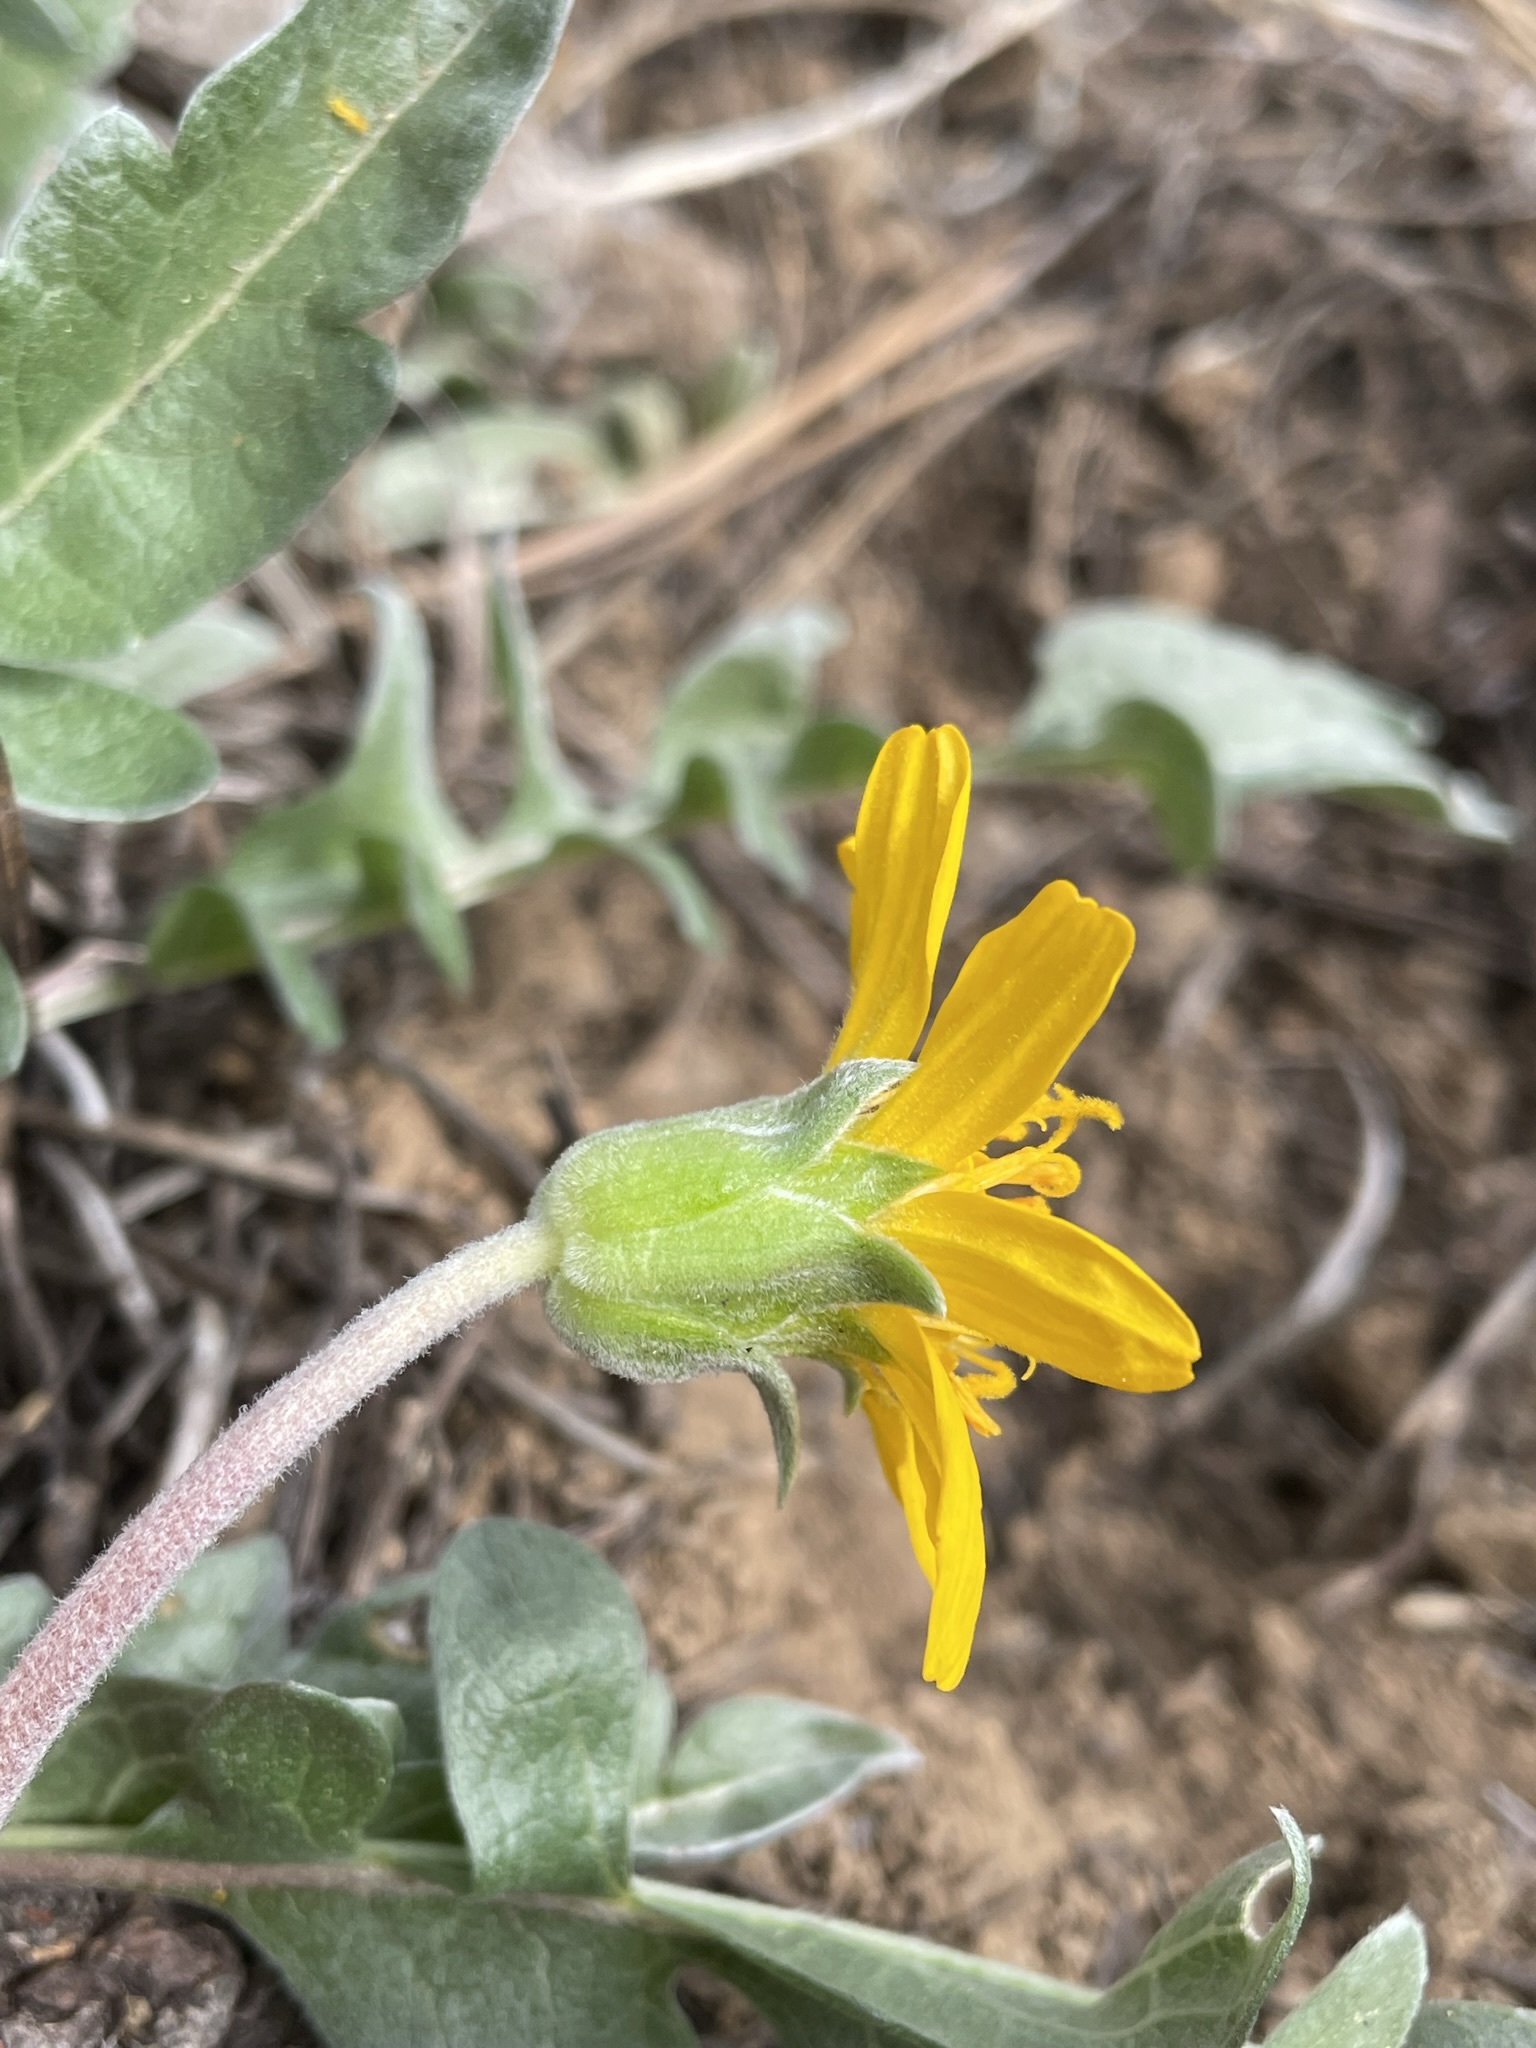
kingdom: Plantae
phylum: Tracheophyta
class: Magnoliopsida
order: Asterales
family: Asteraceae
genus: Balsamorhiza
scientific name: Balsamorhiza sericea
